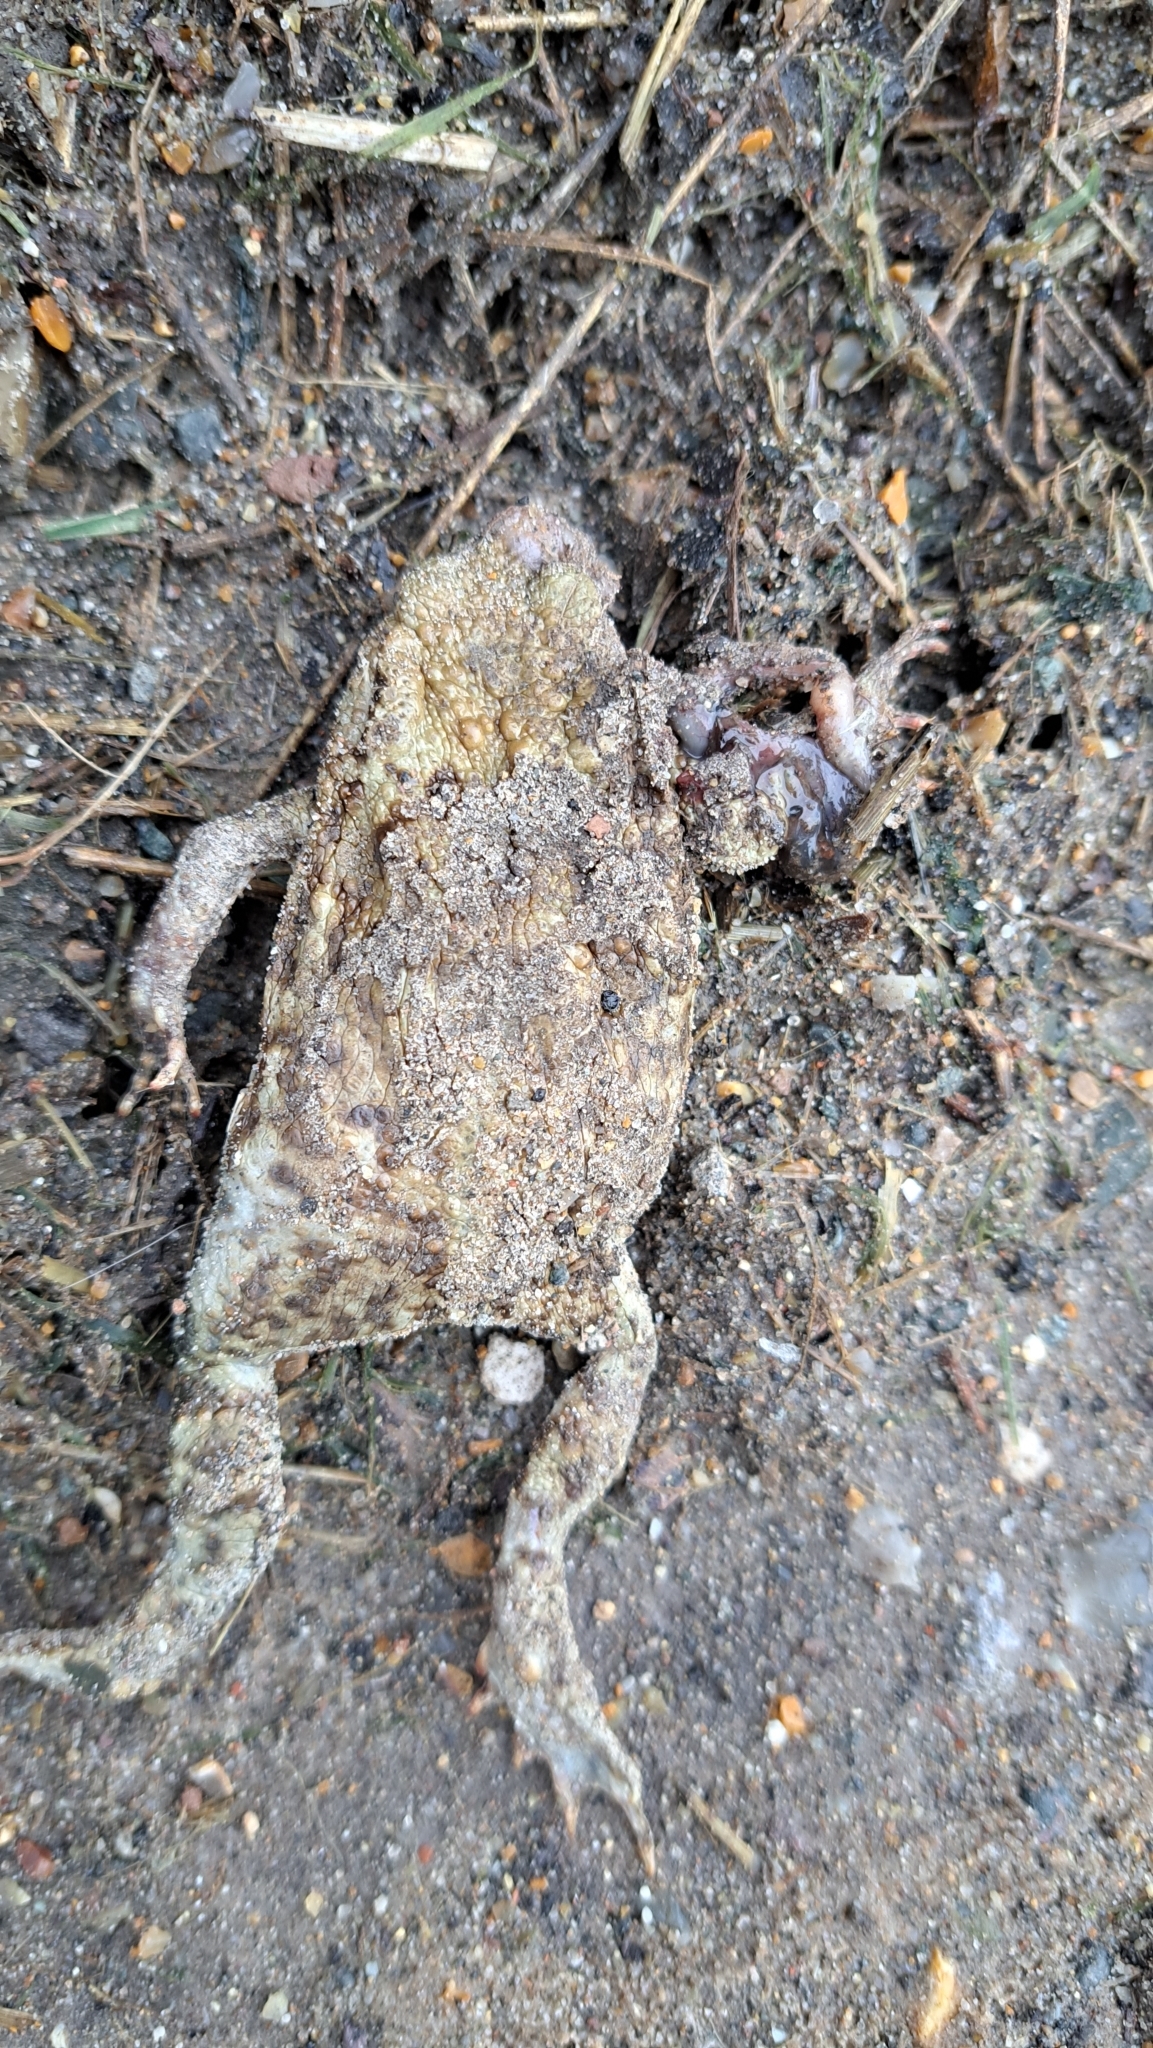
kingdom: Animalia
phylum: Chordata
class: Amphibia
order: Anura
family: Bufonidae
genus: Bufo
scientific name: Bufo bufo
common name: Common toad
